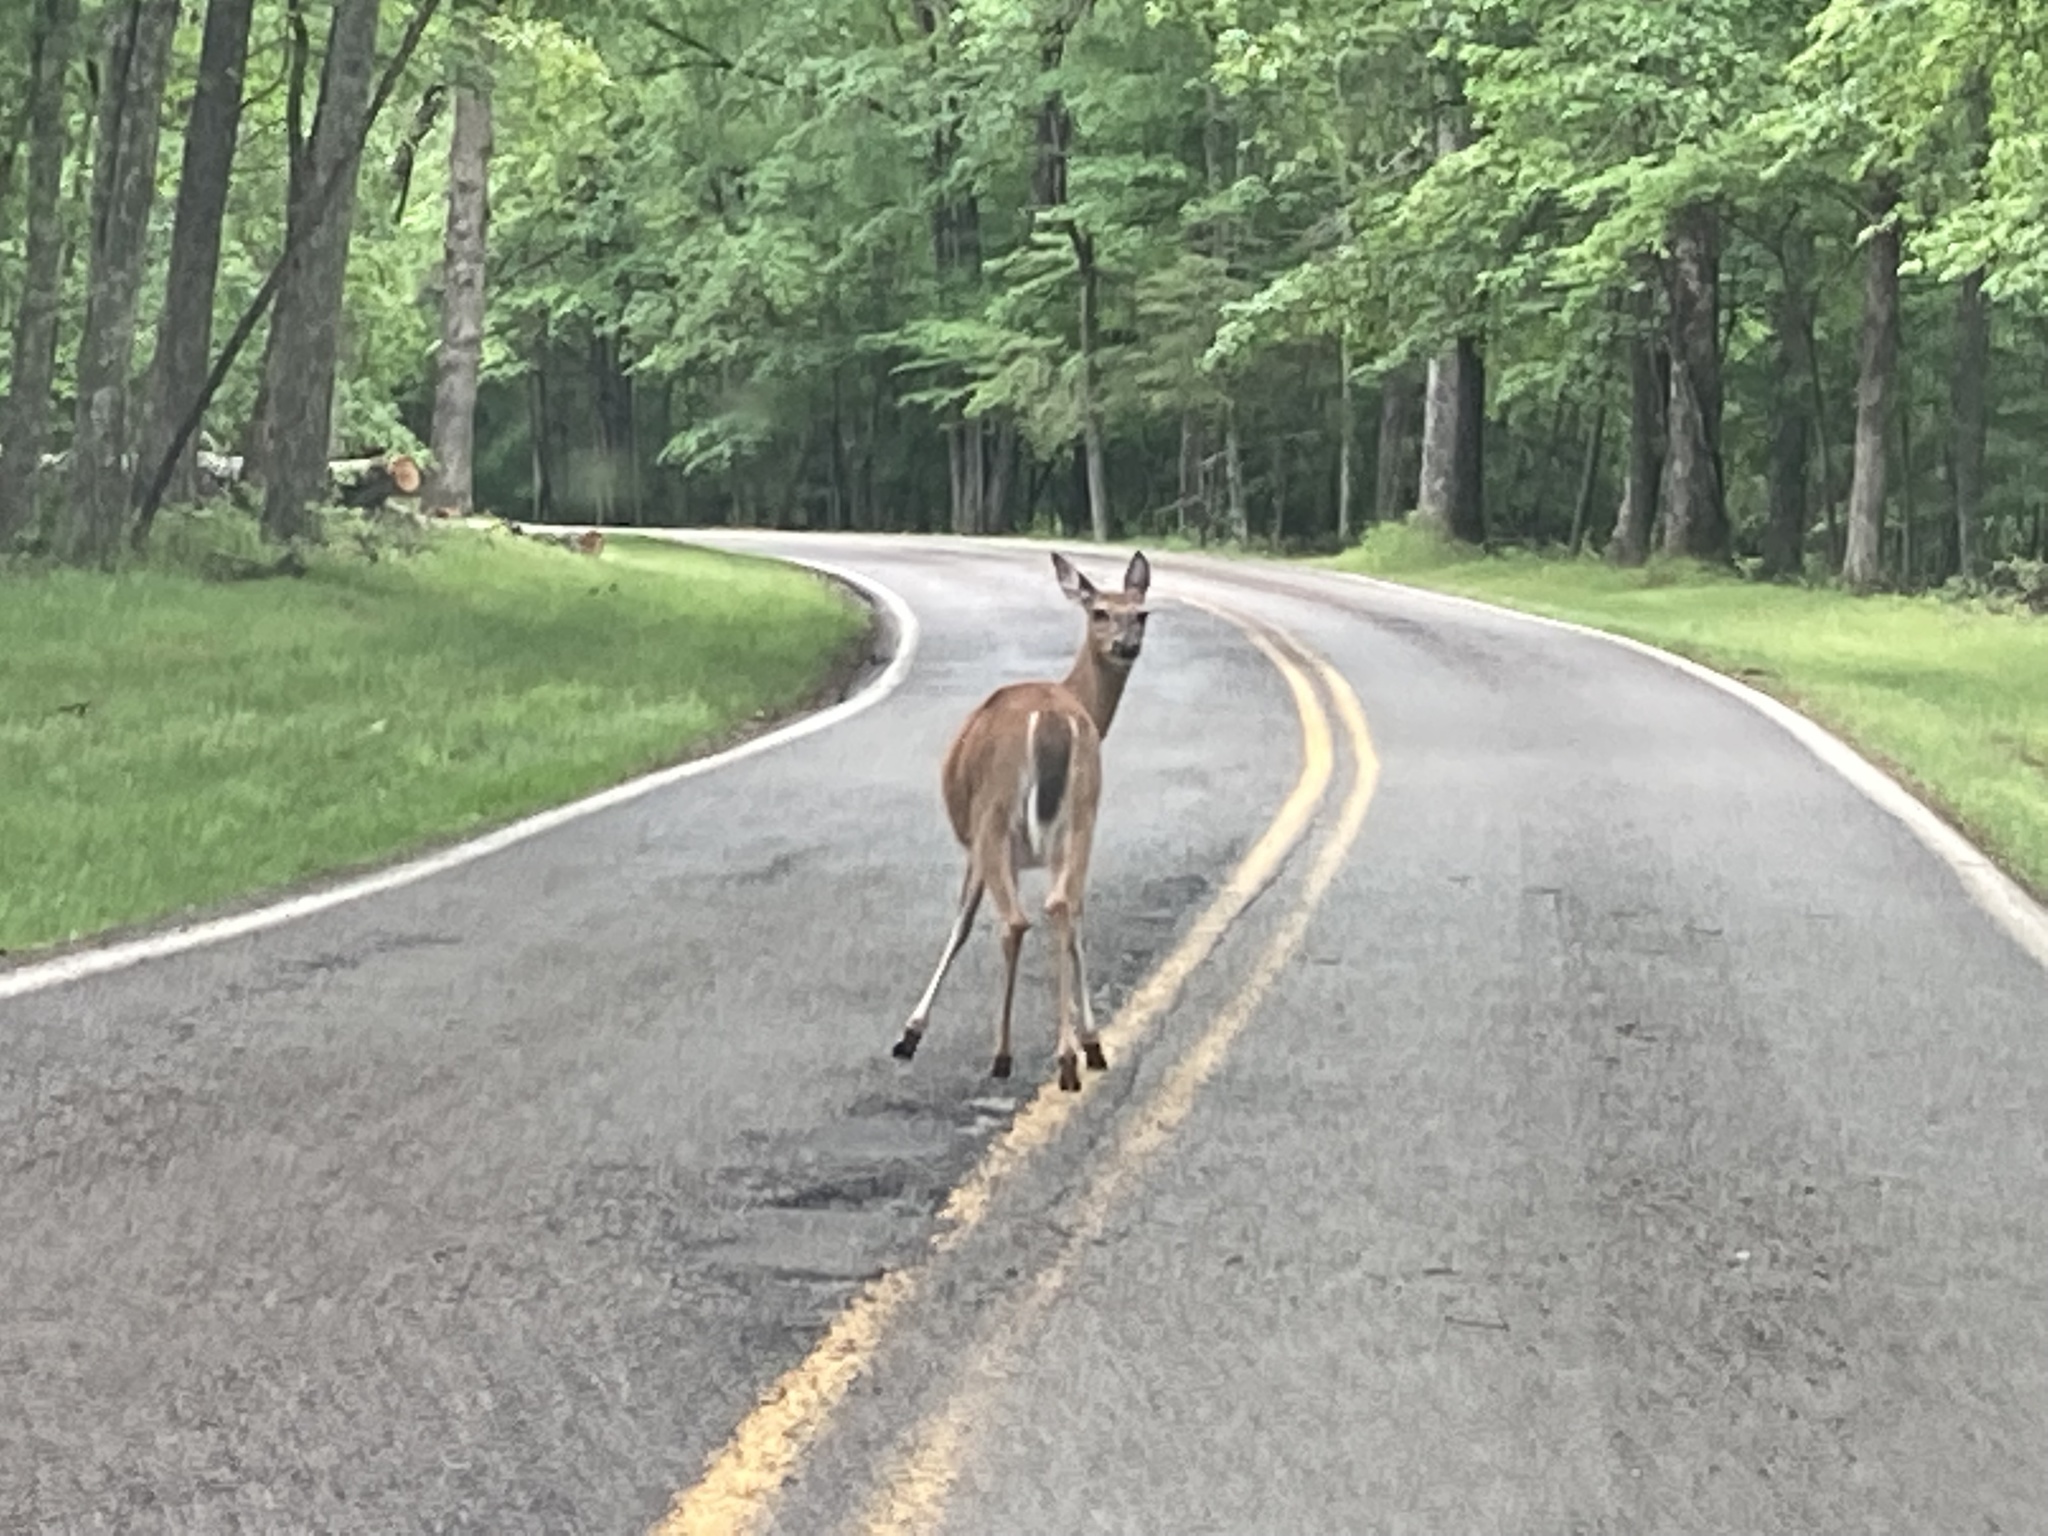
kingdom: Animalia
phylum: Chordata
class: Mammalia
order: Artiodactyla
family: Cervidae
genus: Odocoileus
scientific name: Odocoileus virginianus
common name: White-tailed deer
